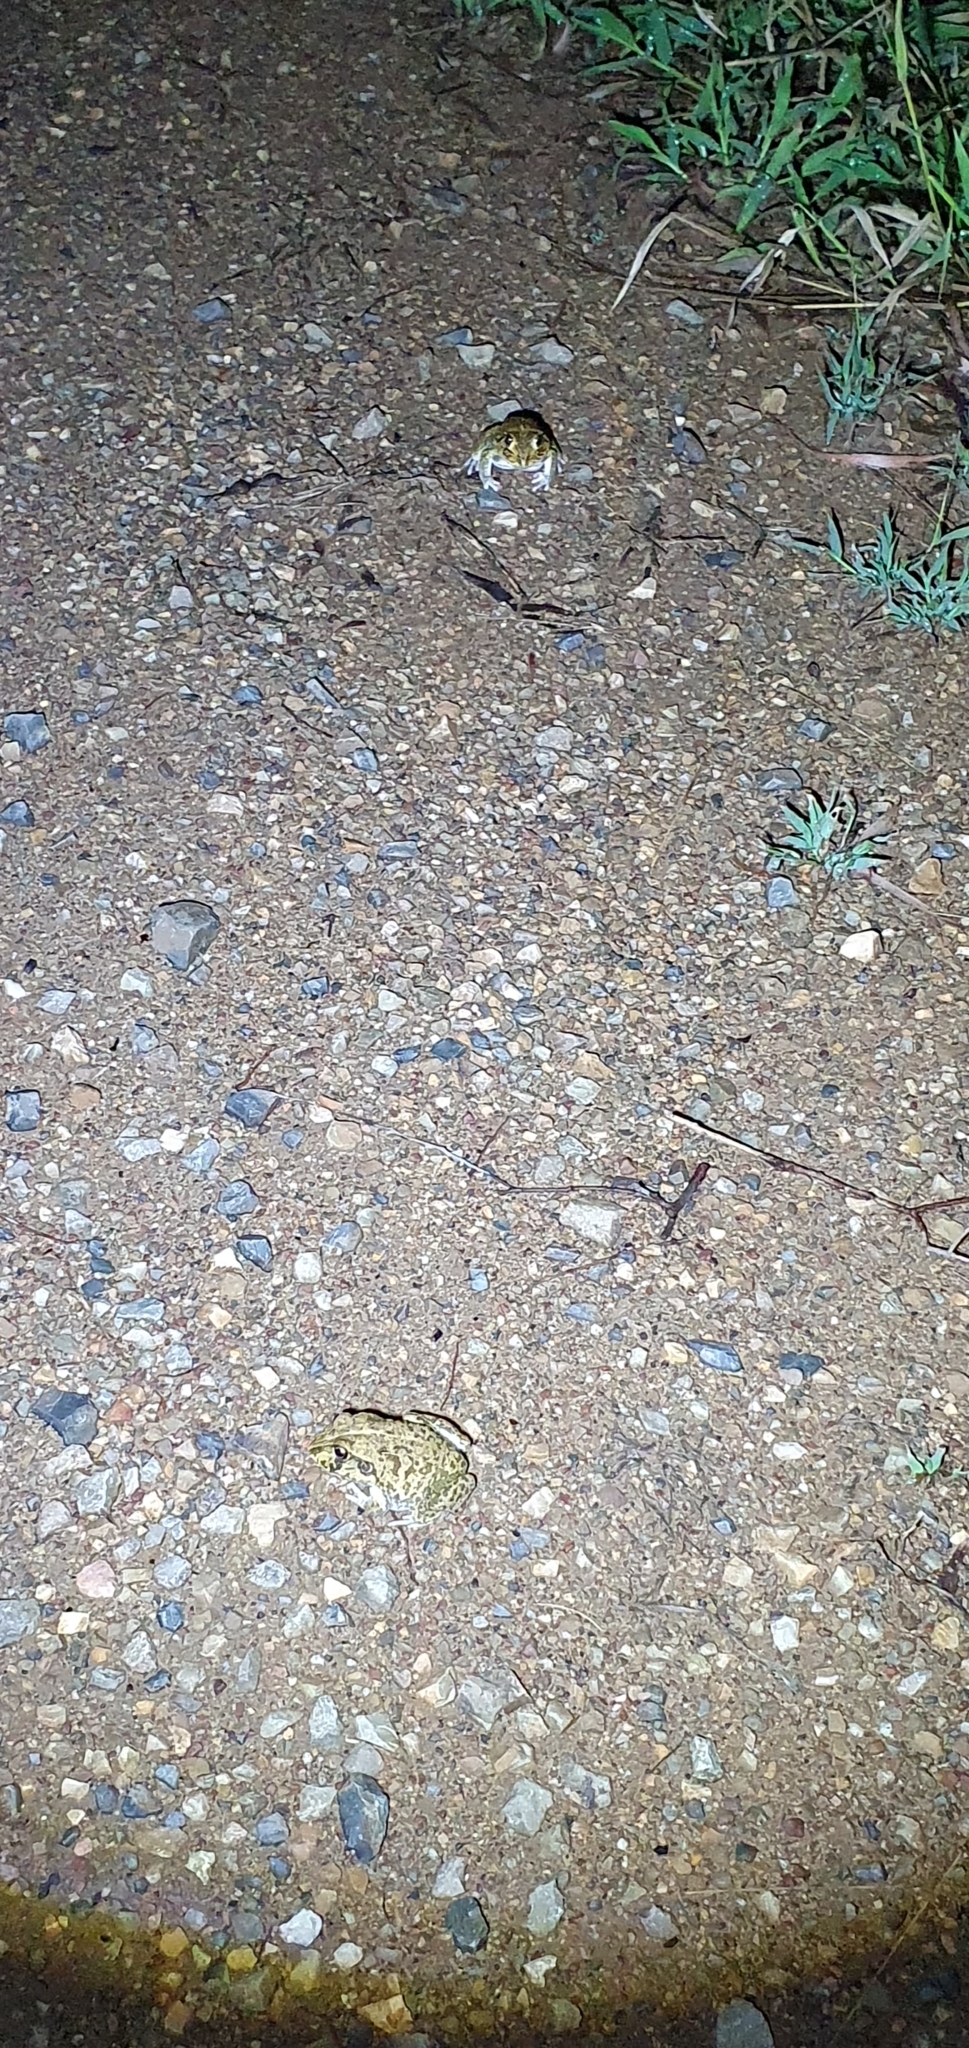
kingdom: Animalia
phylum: Chordata
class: Amphibia
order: Anura
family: Pelodryadidae
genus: Ranoidea
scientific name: Ranoidea novaehollandiae
